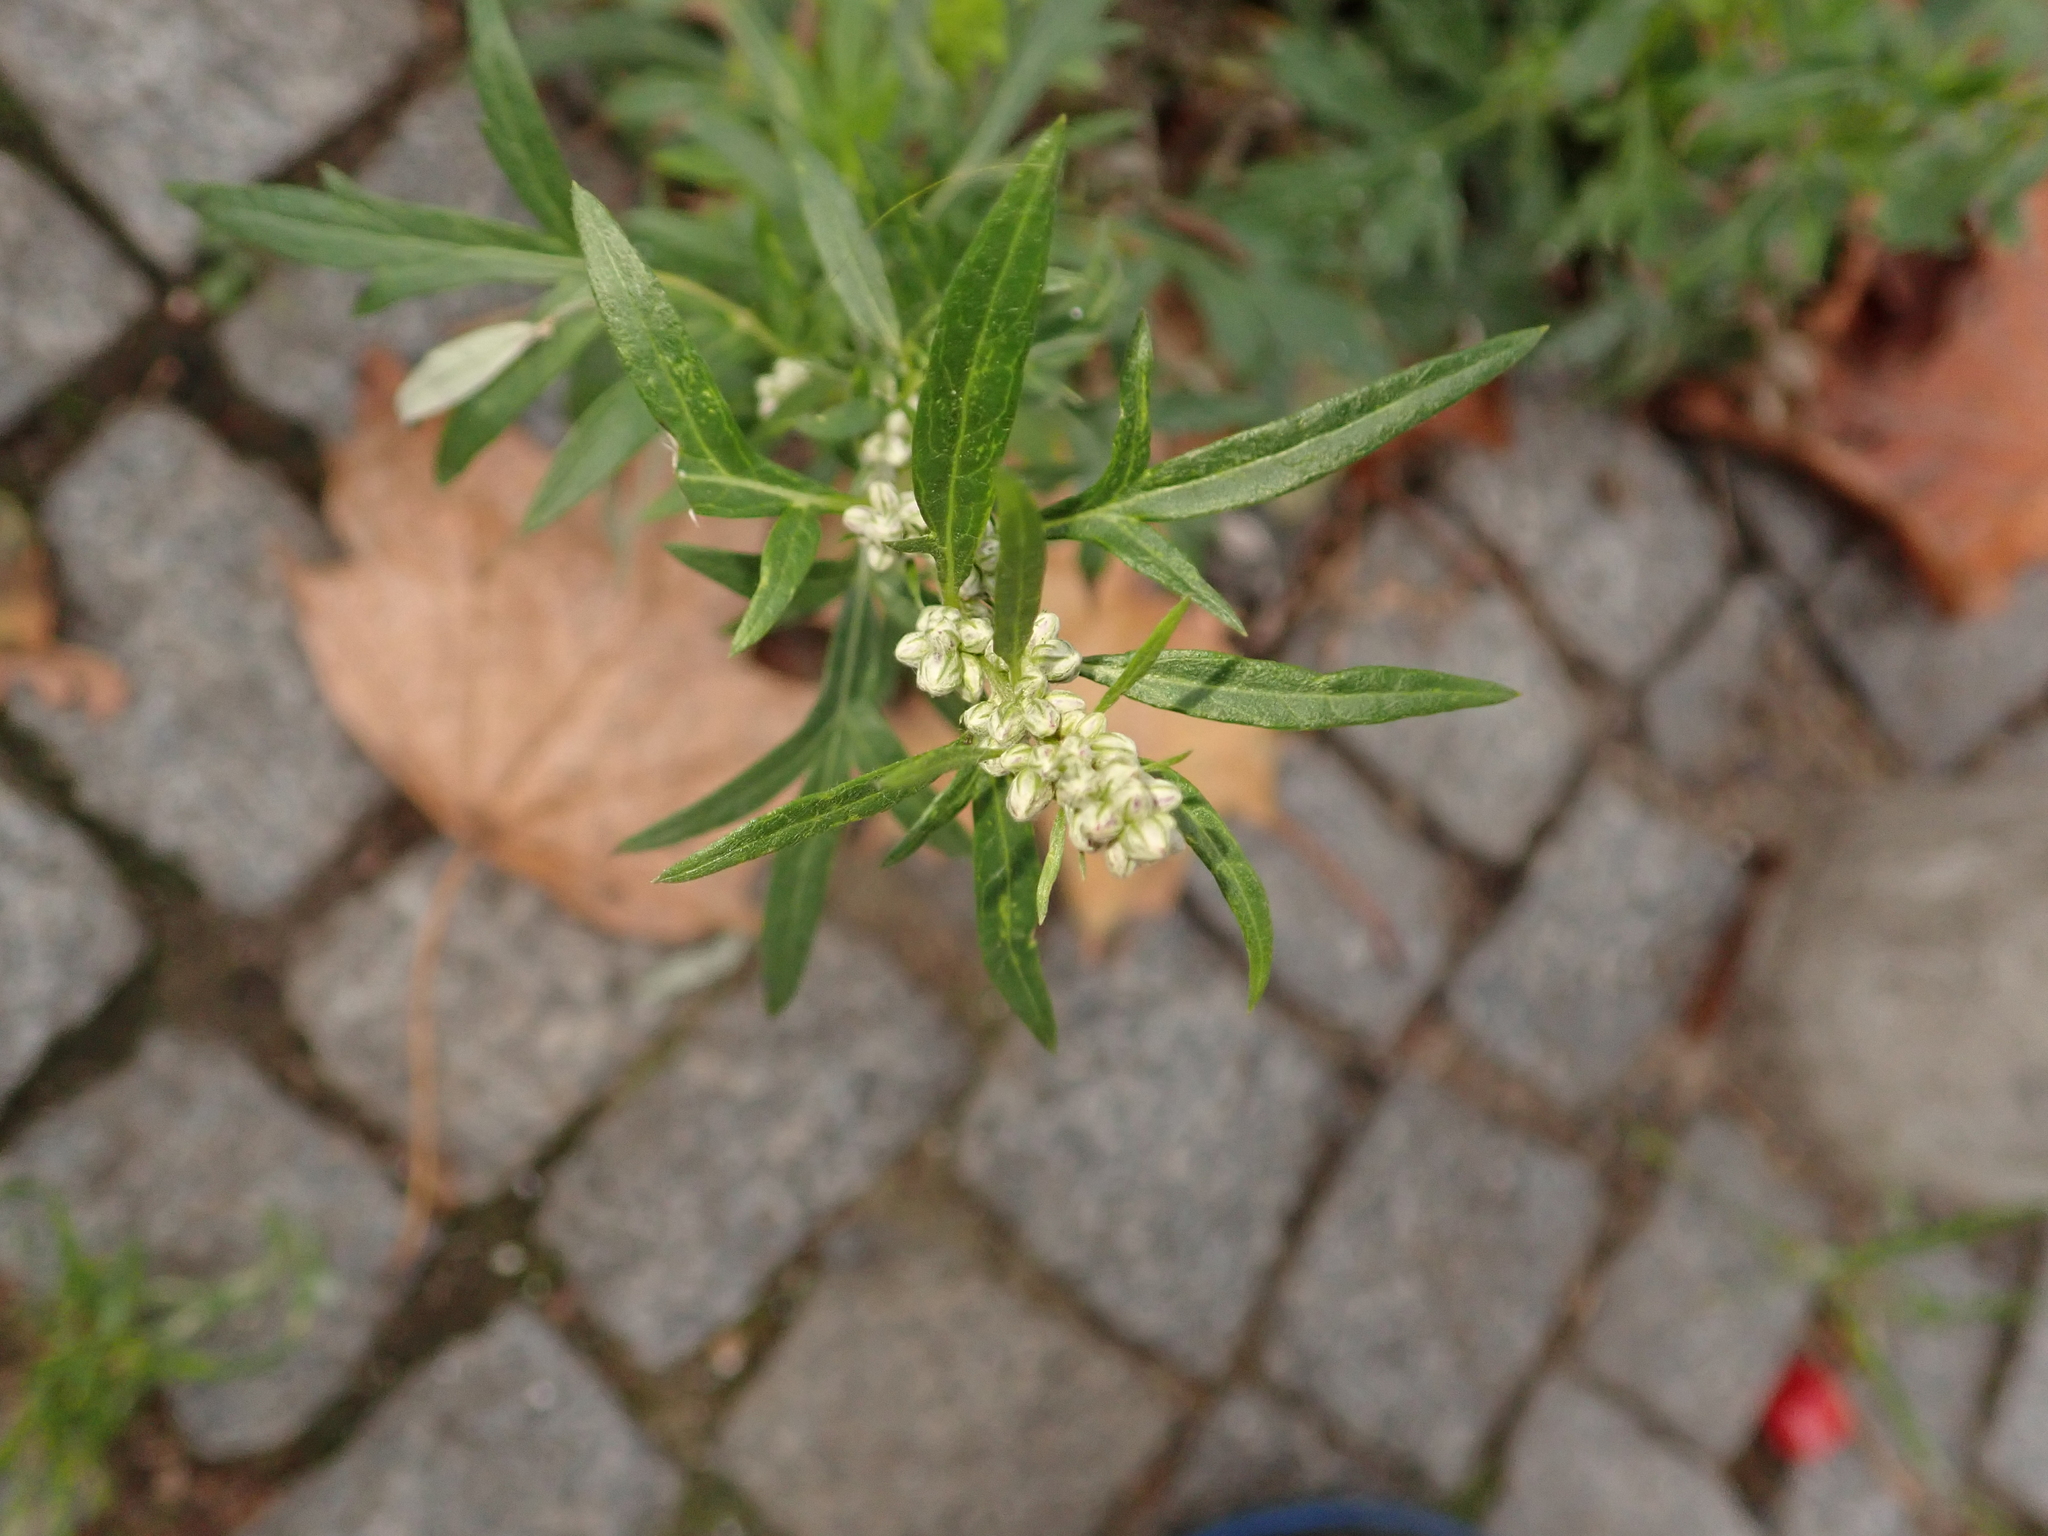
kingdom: Plantae
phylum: Tracheophyta
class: Magnoliopsida
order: Asterales
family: Asteraceae
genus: Artemisia
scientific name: Artemisia vulgaris
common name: Mugwort
